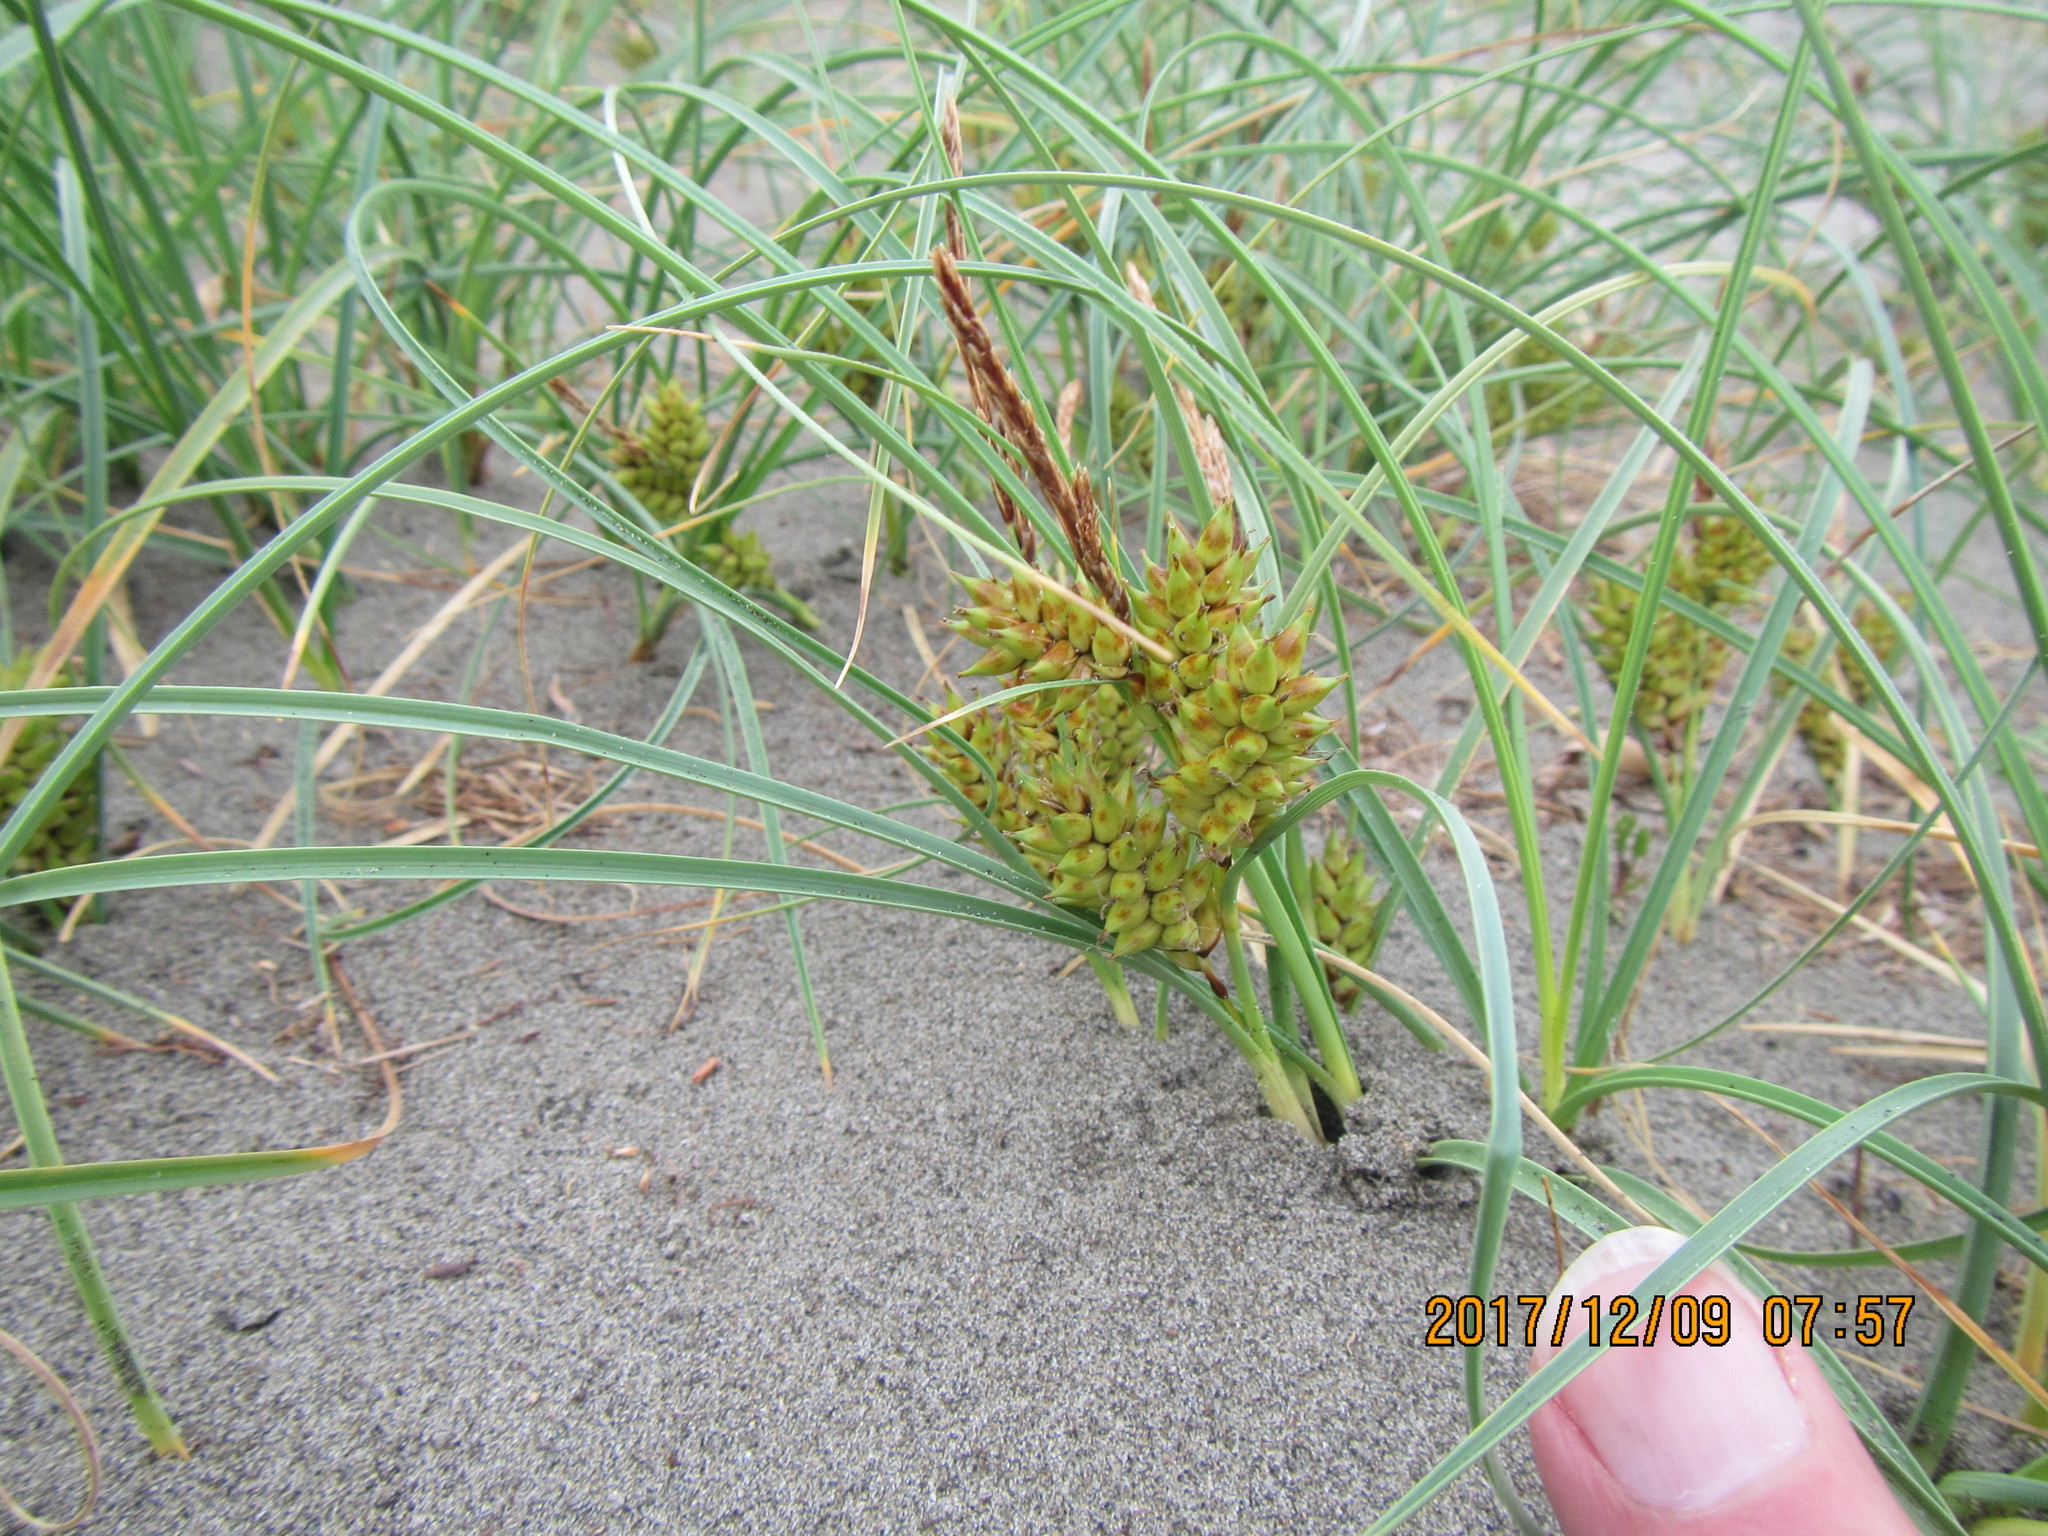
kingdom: Plantae
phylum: Tracheophyta
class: Liliopsida
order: Poales
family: Cyperaceae
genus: Carex
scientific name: Carex pumila
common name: Dwarf sedge
